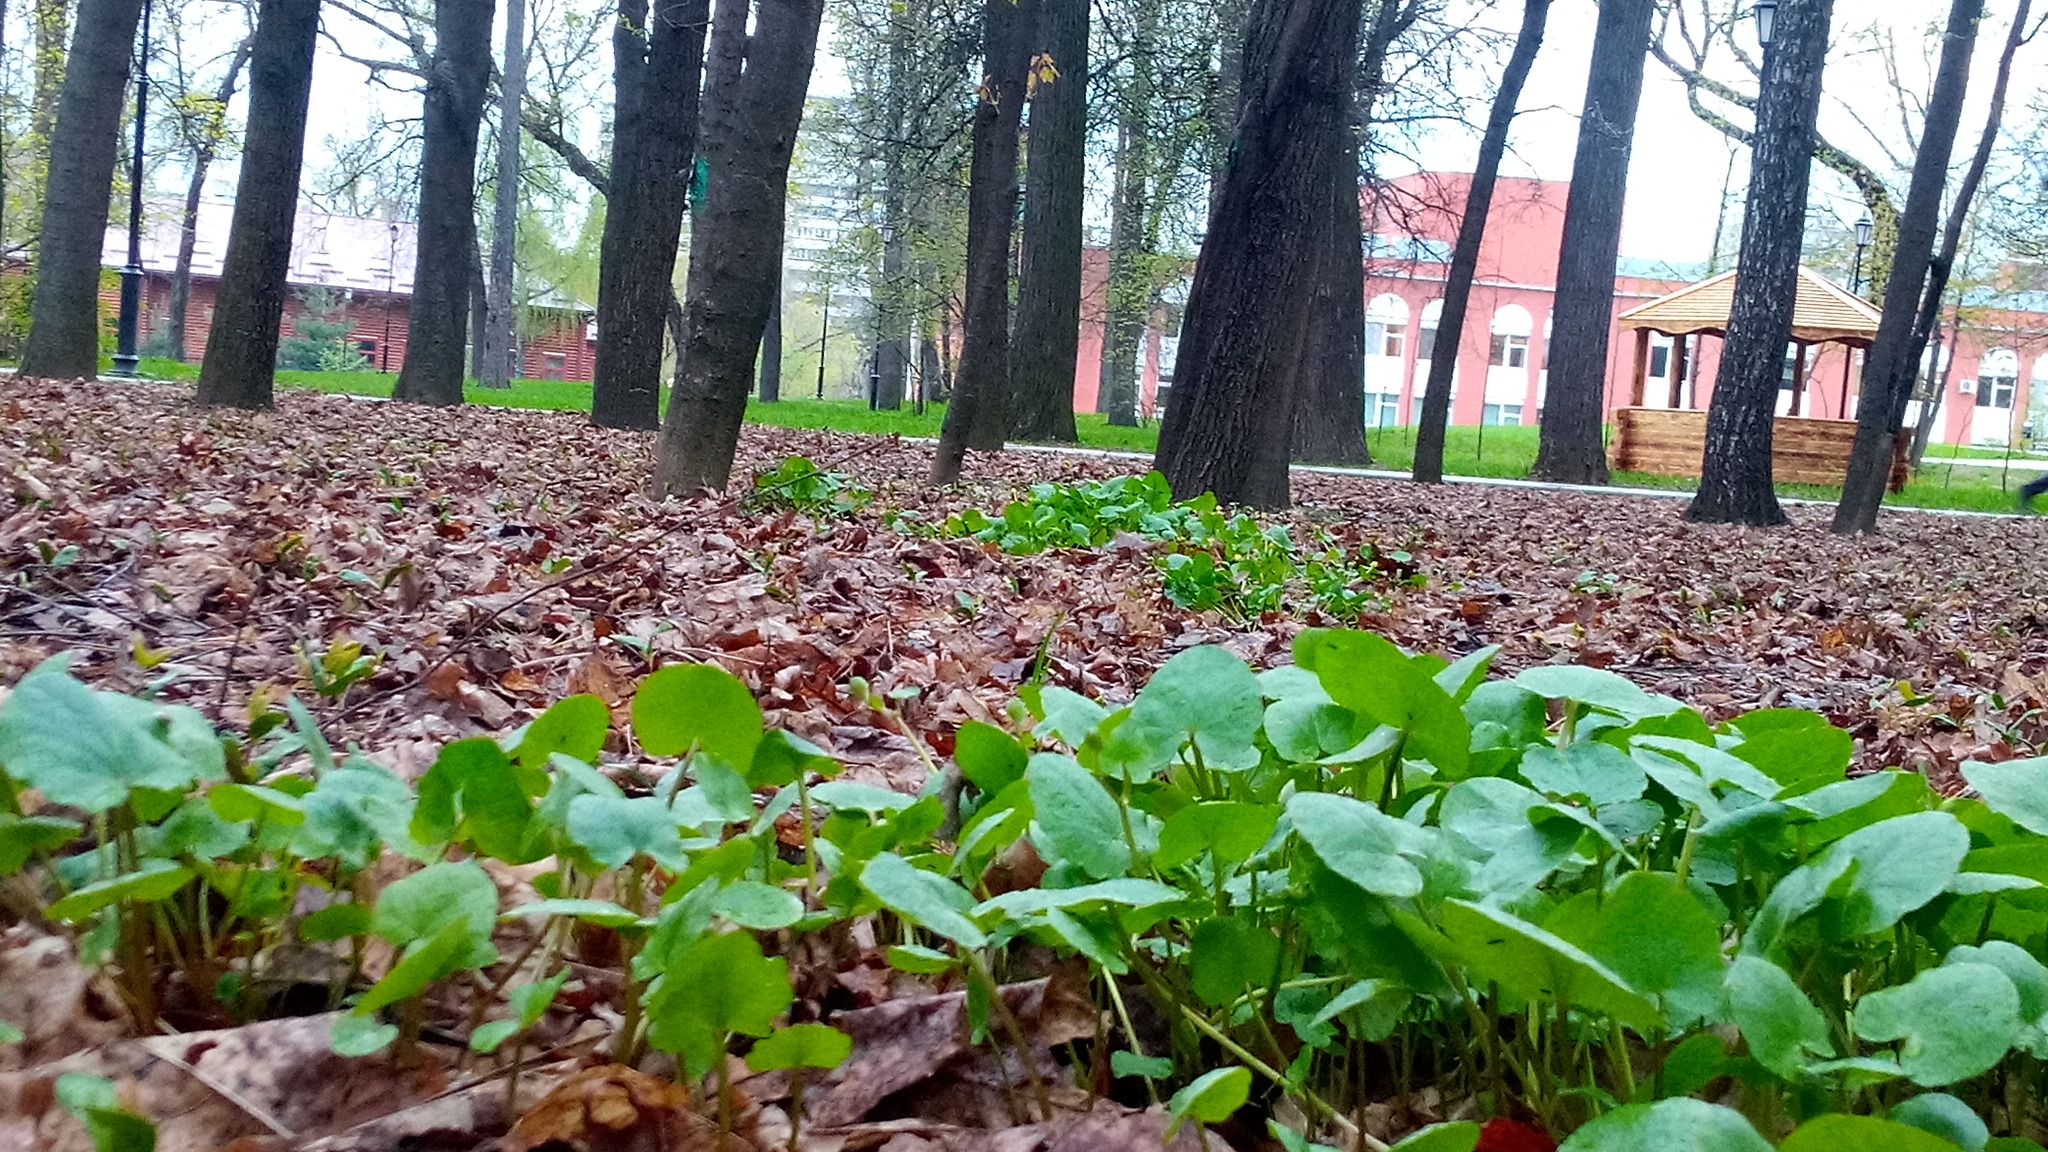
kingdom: Plantae
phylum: Tracheophyta
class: Magnoliopsida
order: Ranunculales
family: Ranunculaceae
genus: Ficaria
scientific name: Ficaria verna
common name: Lesser celandine
